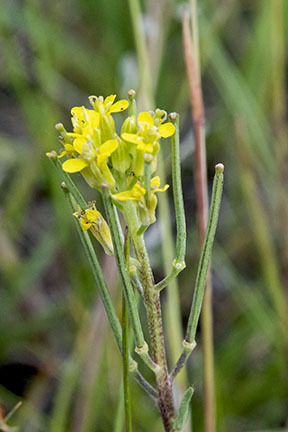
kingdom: Plantae
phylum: Tracheophyta
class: Magnoliopsida
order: Brassicales
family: Brassicaceae
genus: Erysimum
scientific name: Erysimum inconspicuum
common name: Shy wallflower
